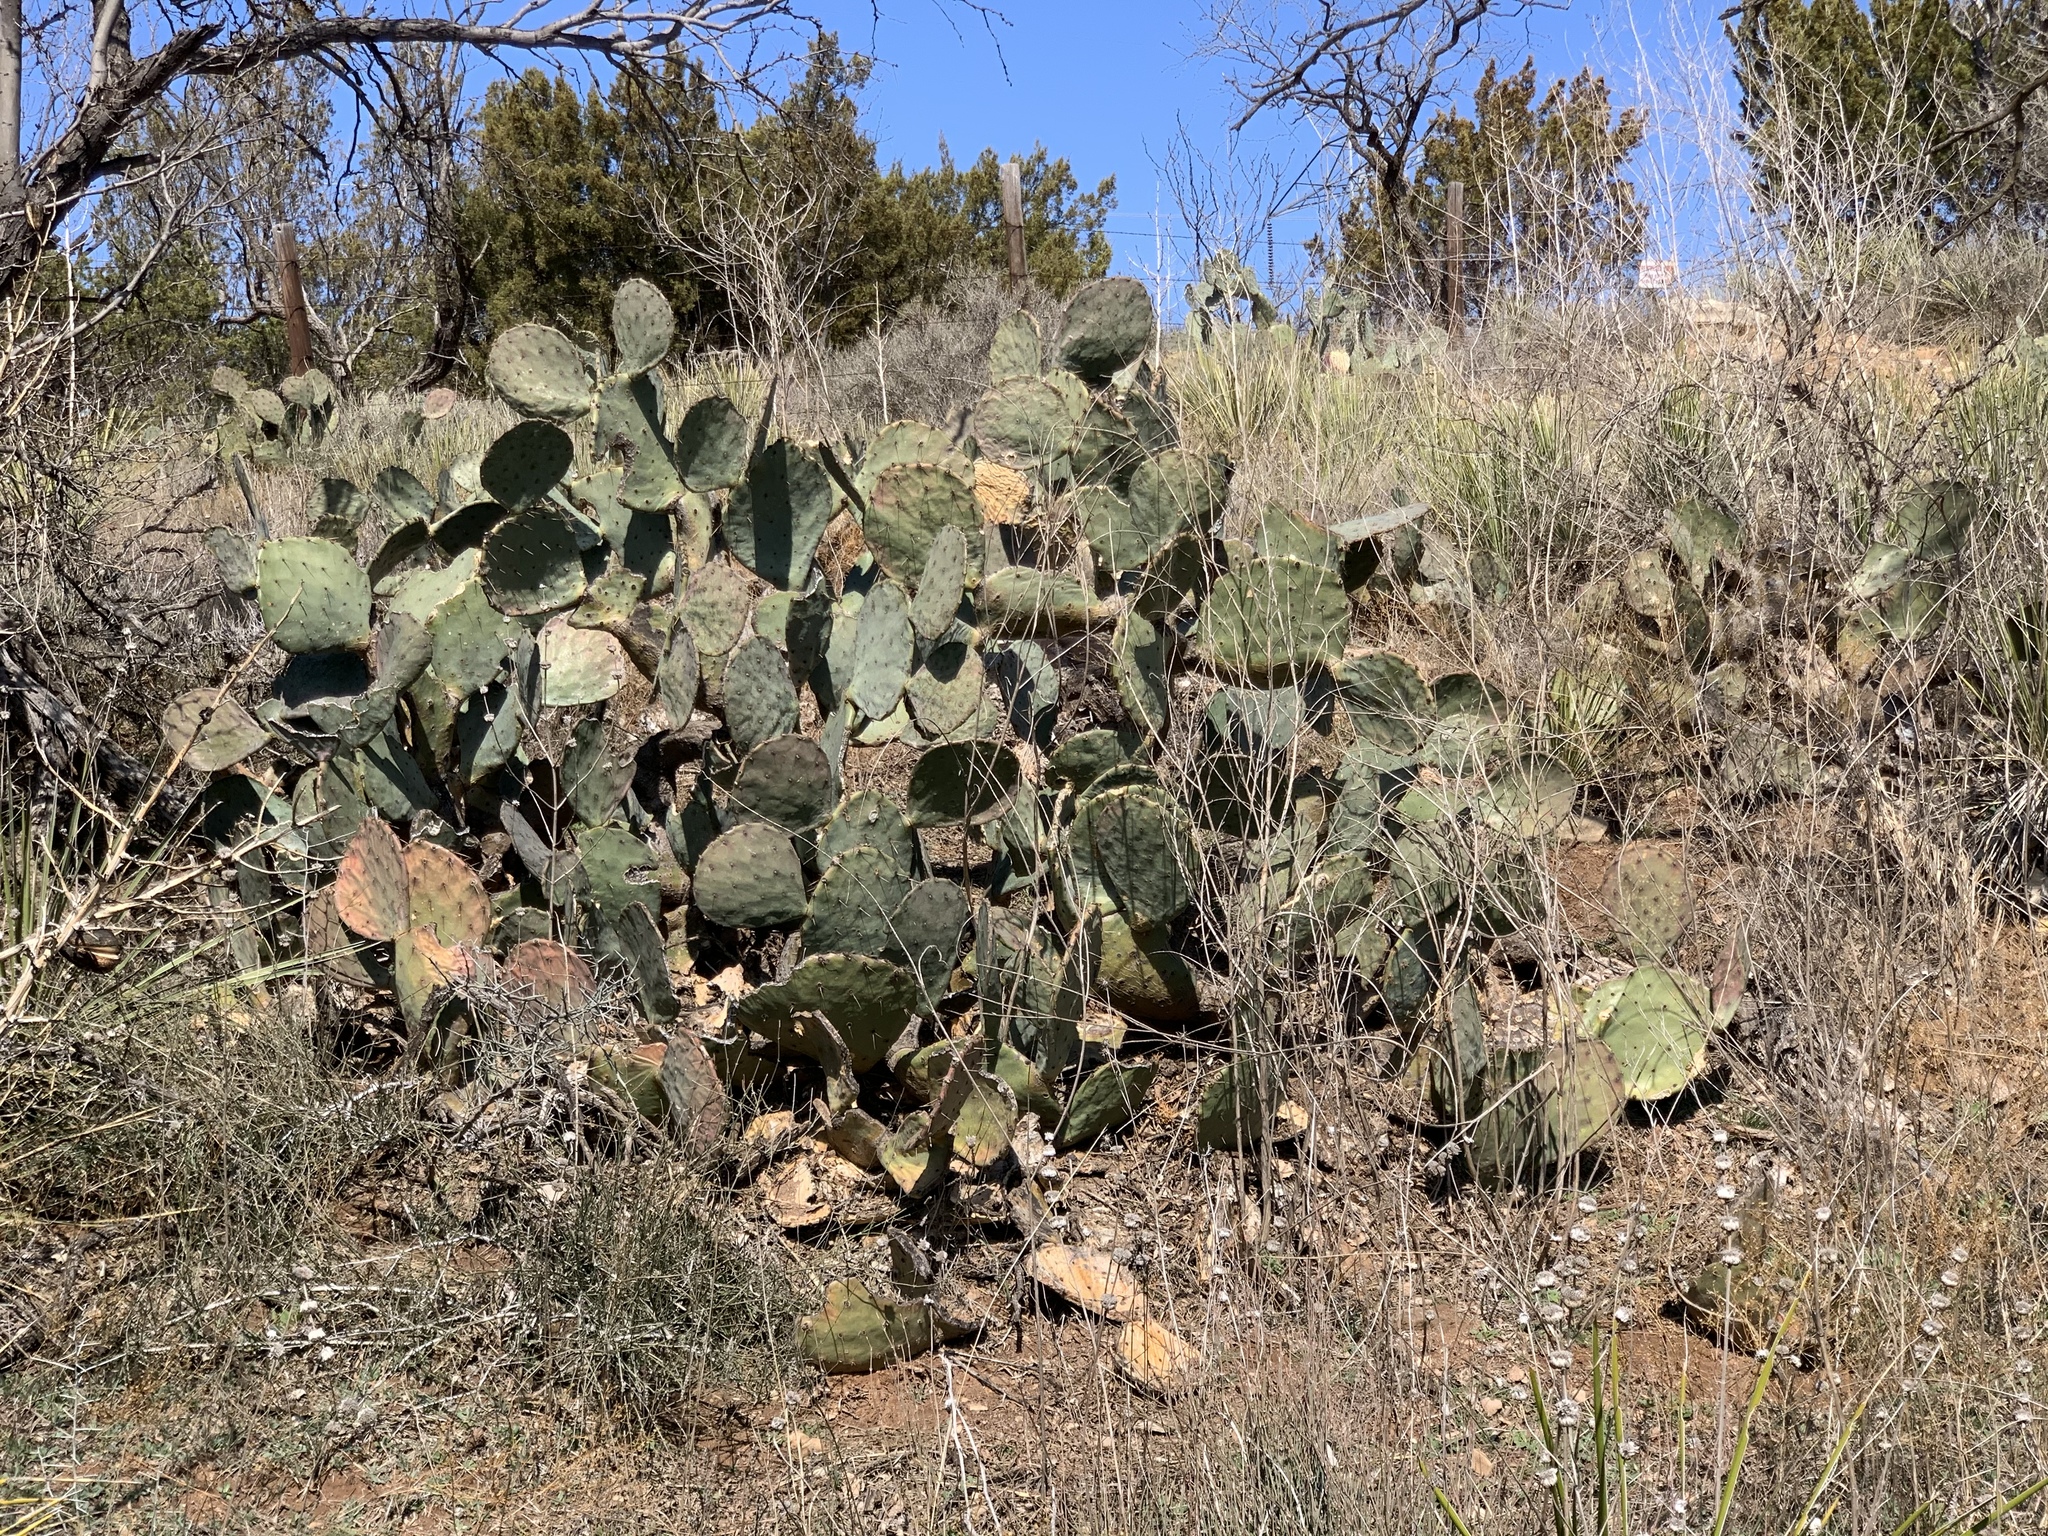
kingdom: Plantae
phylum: Tracheophyta
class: Magnoliopsida
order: Caryophyllales
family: Cactaceae
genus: Opuntia
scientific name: Opuntia engelmannii
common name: Cactus-apple
